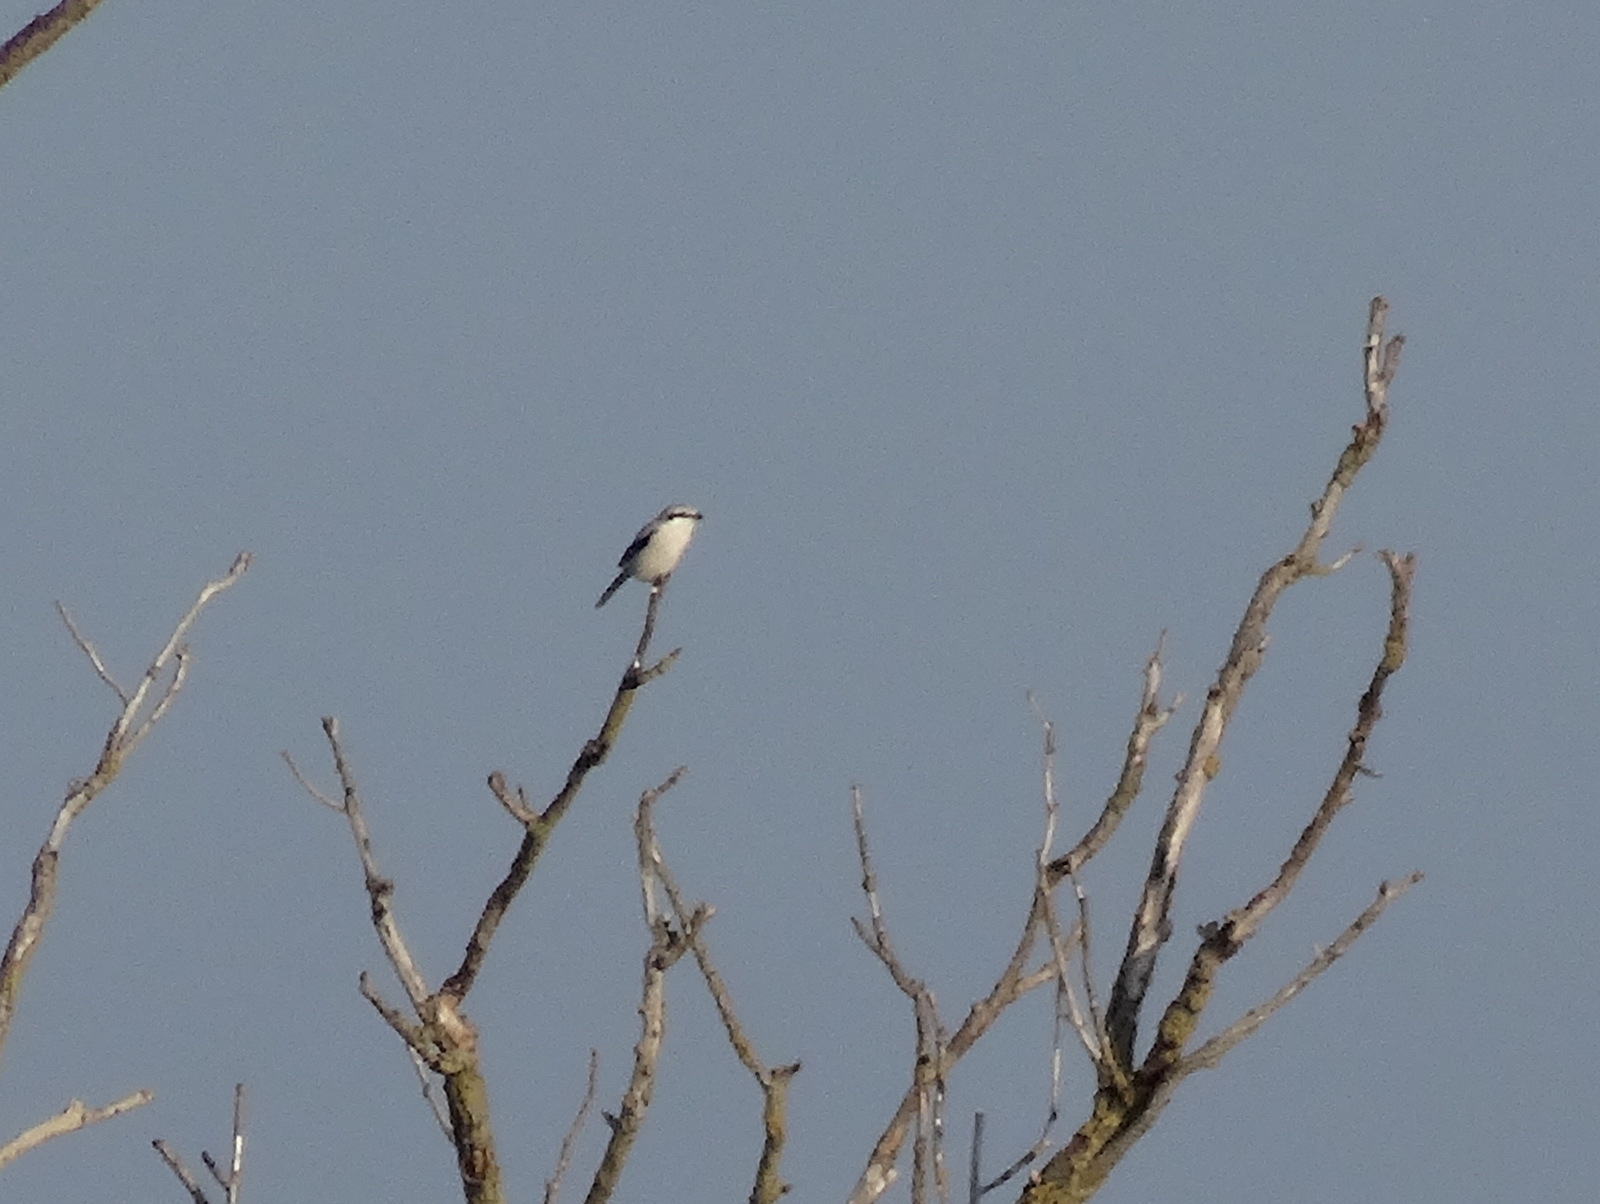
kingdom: Animalia
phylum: Chordata
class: Aves
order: Passeriformes
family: Laniidae
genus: Lanius
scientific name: Lanius excubitor
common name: Great grey shrike
